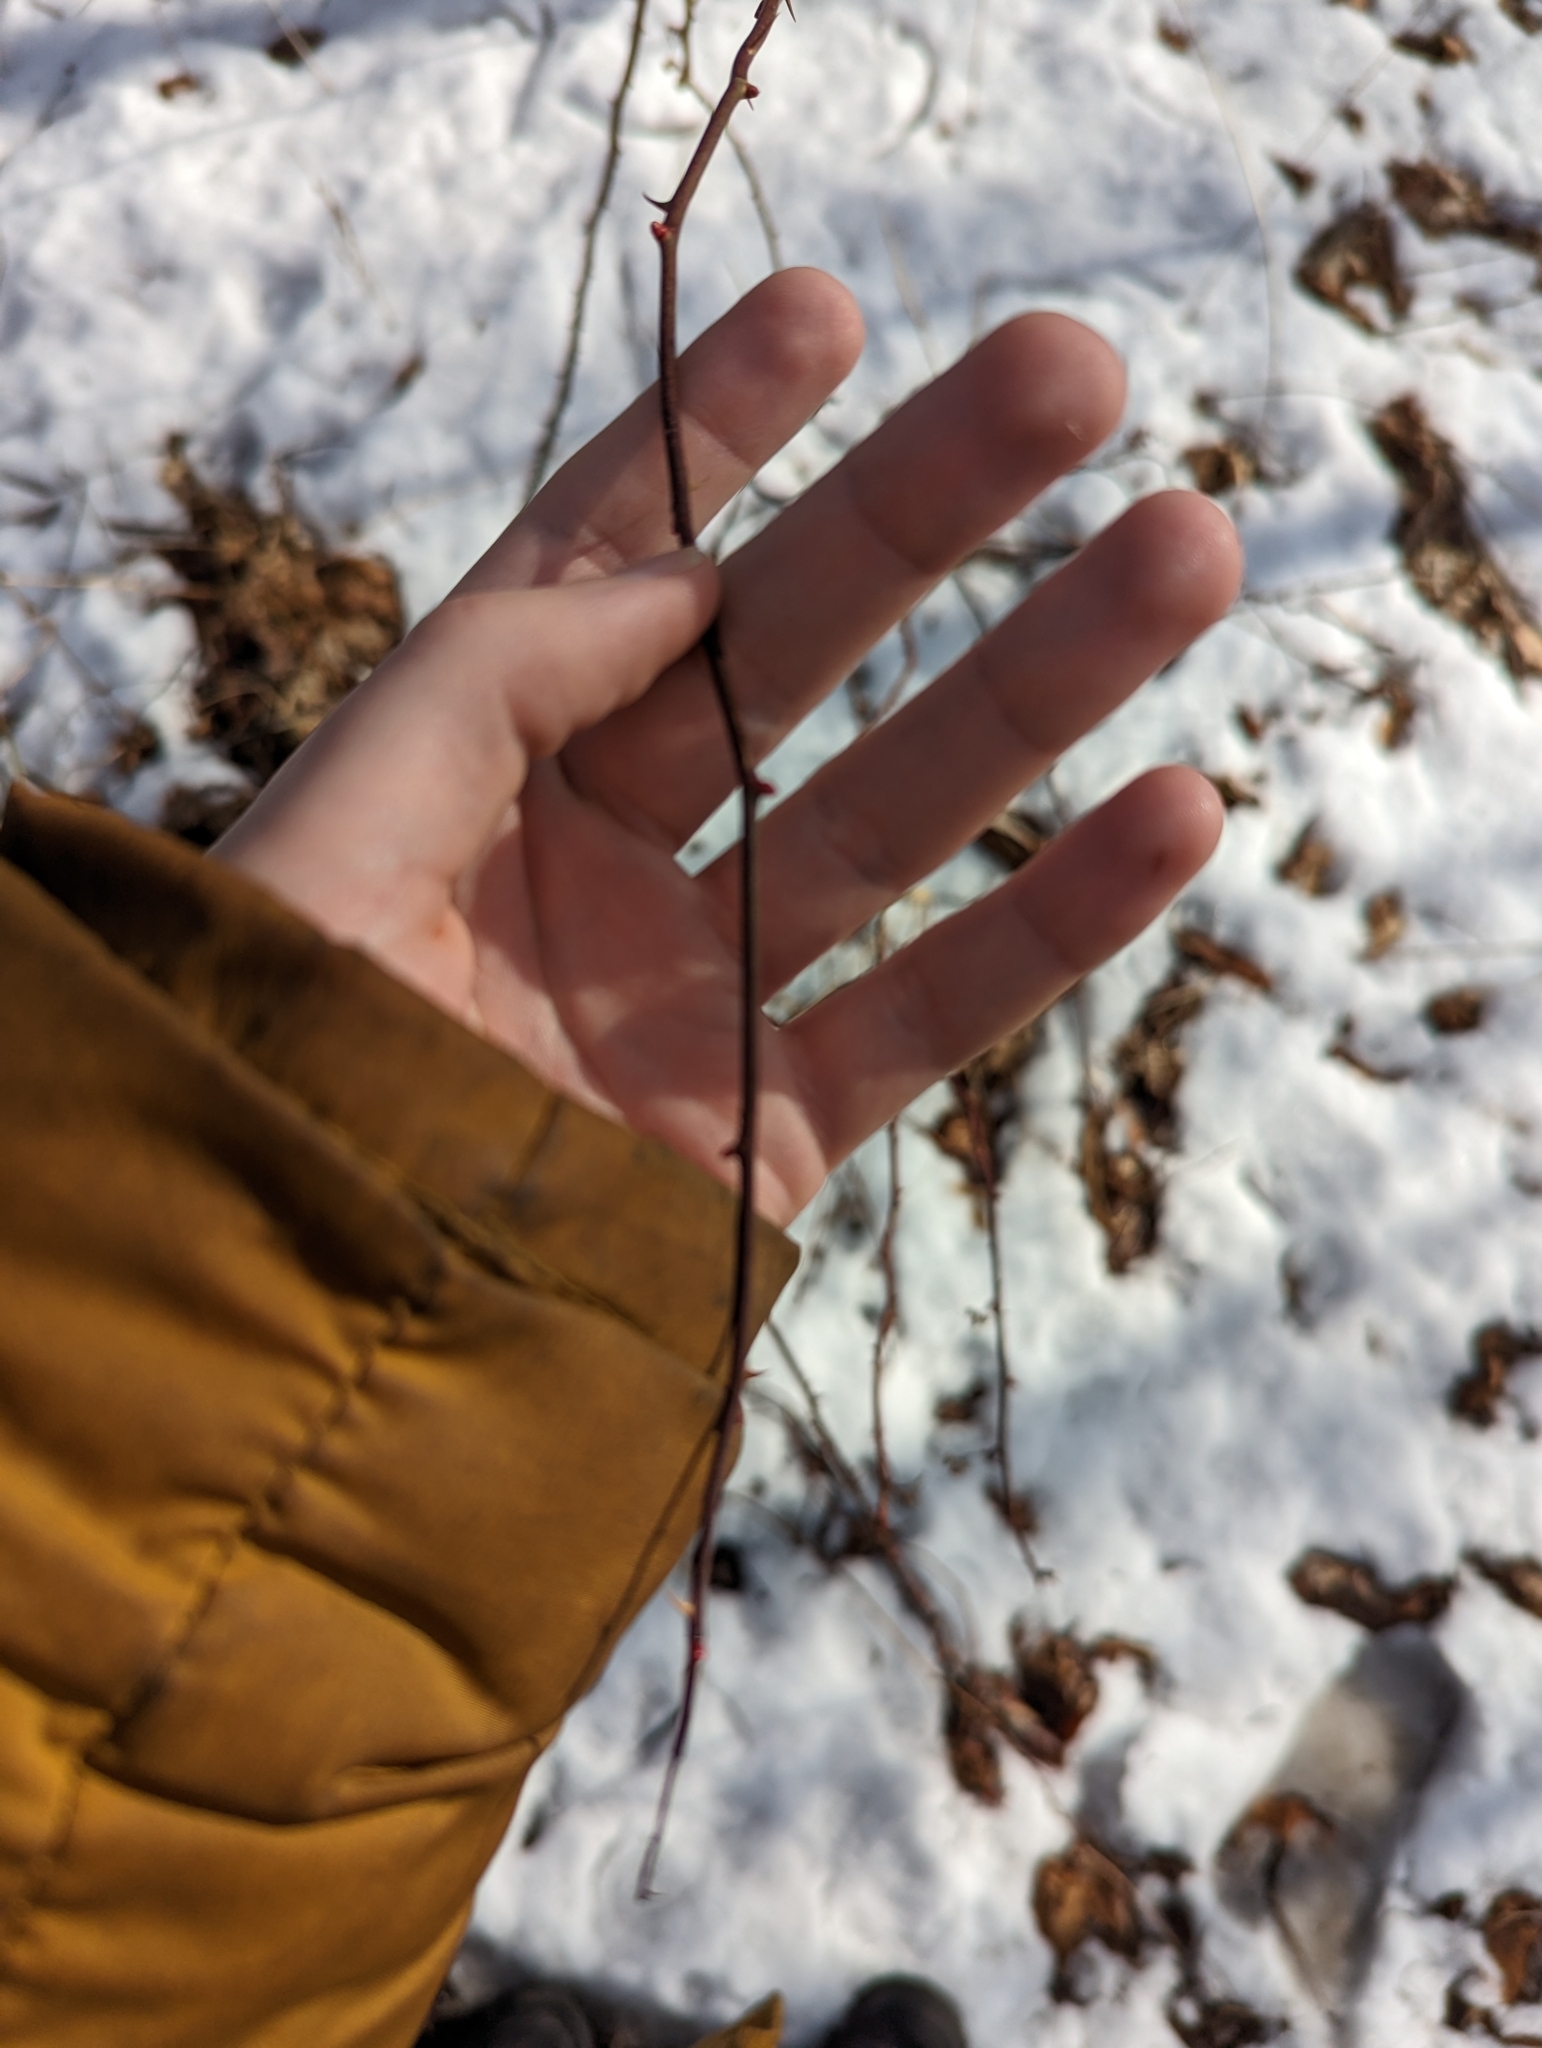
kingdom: Plantae
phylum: Tracheophyta
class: Magnoliopsida
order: Rosales
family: Rosaceae
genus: Rosa
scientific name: Rosa multiflora
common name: Multiflora rose
